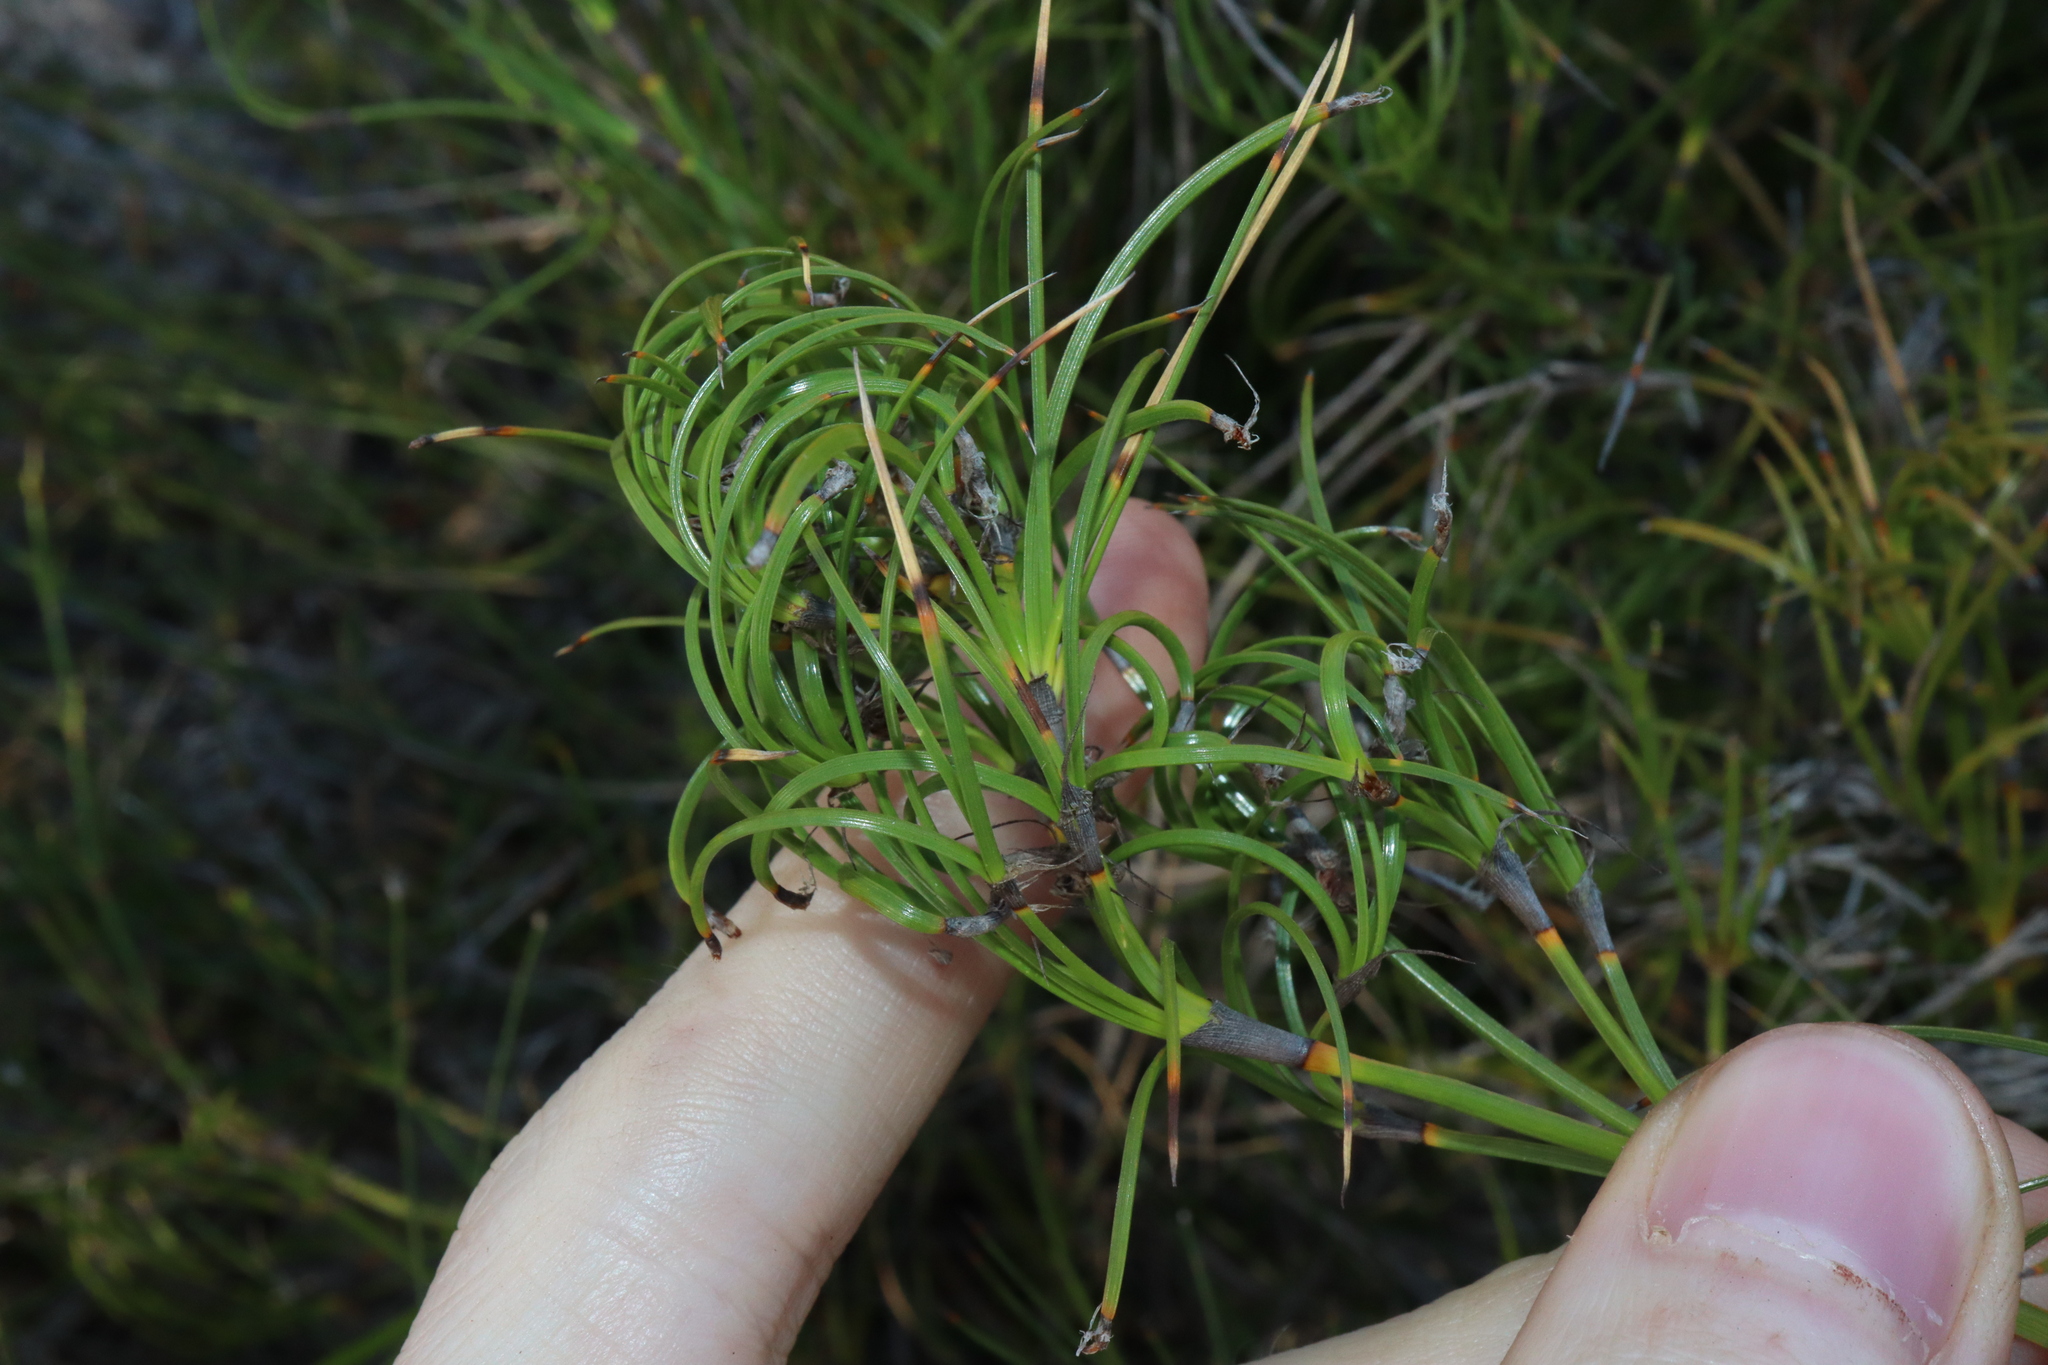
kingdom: Plantae
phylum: Tracheophyta
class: Liliopsida
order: Poales
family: Cyperaceae
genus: Caustis
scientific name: Caustis dioica
